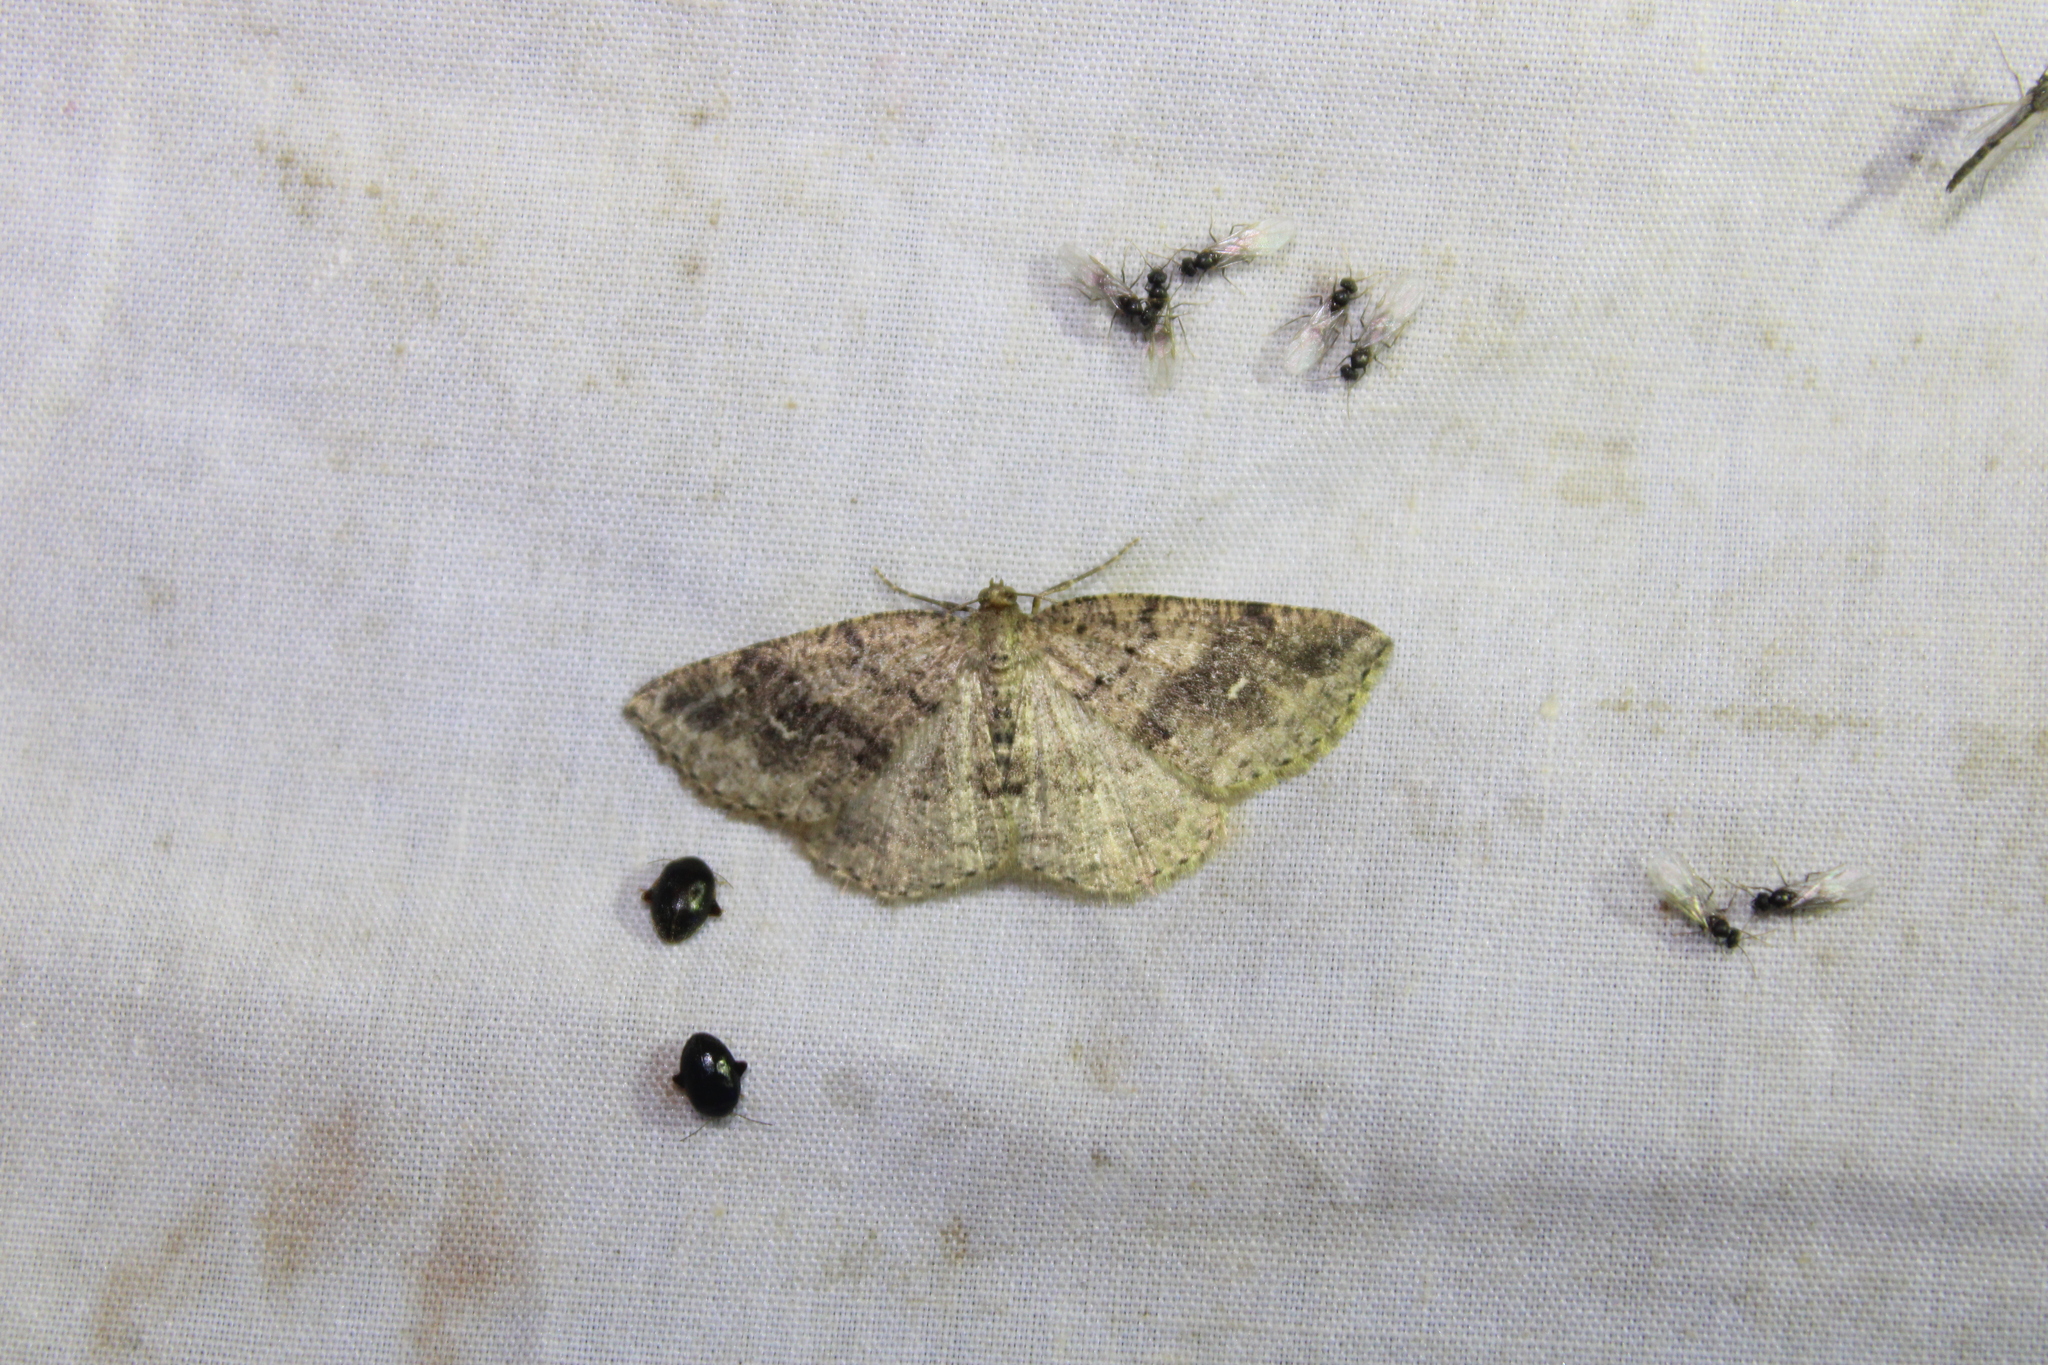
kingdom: Animalia
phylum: Arthropoda
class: Insecta
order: Lepidoptera
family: Geometridae
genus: Homochlodes
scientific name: Homochlodes fritillaria
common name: Pale homochlodes
